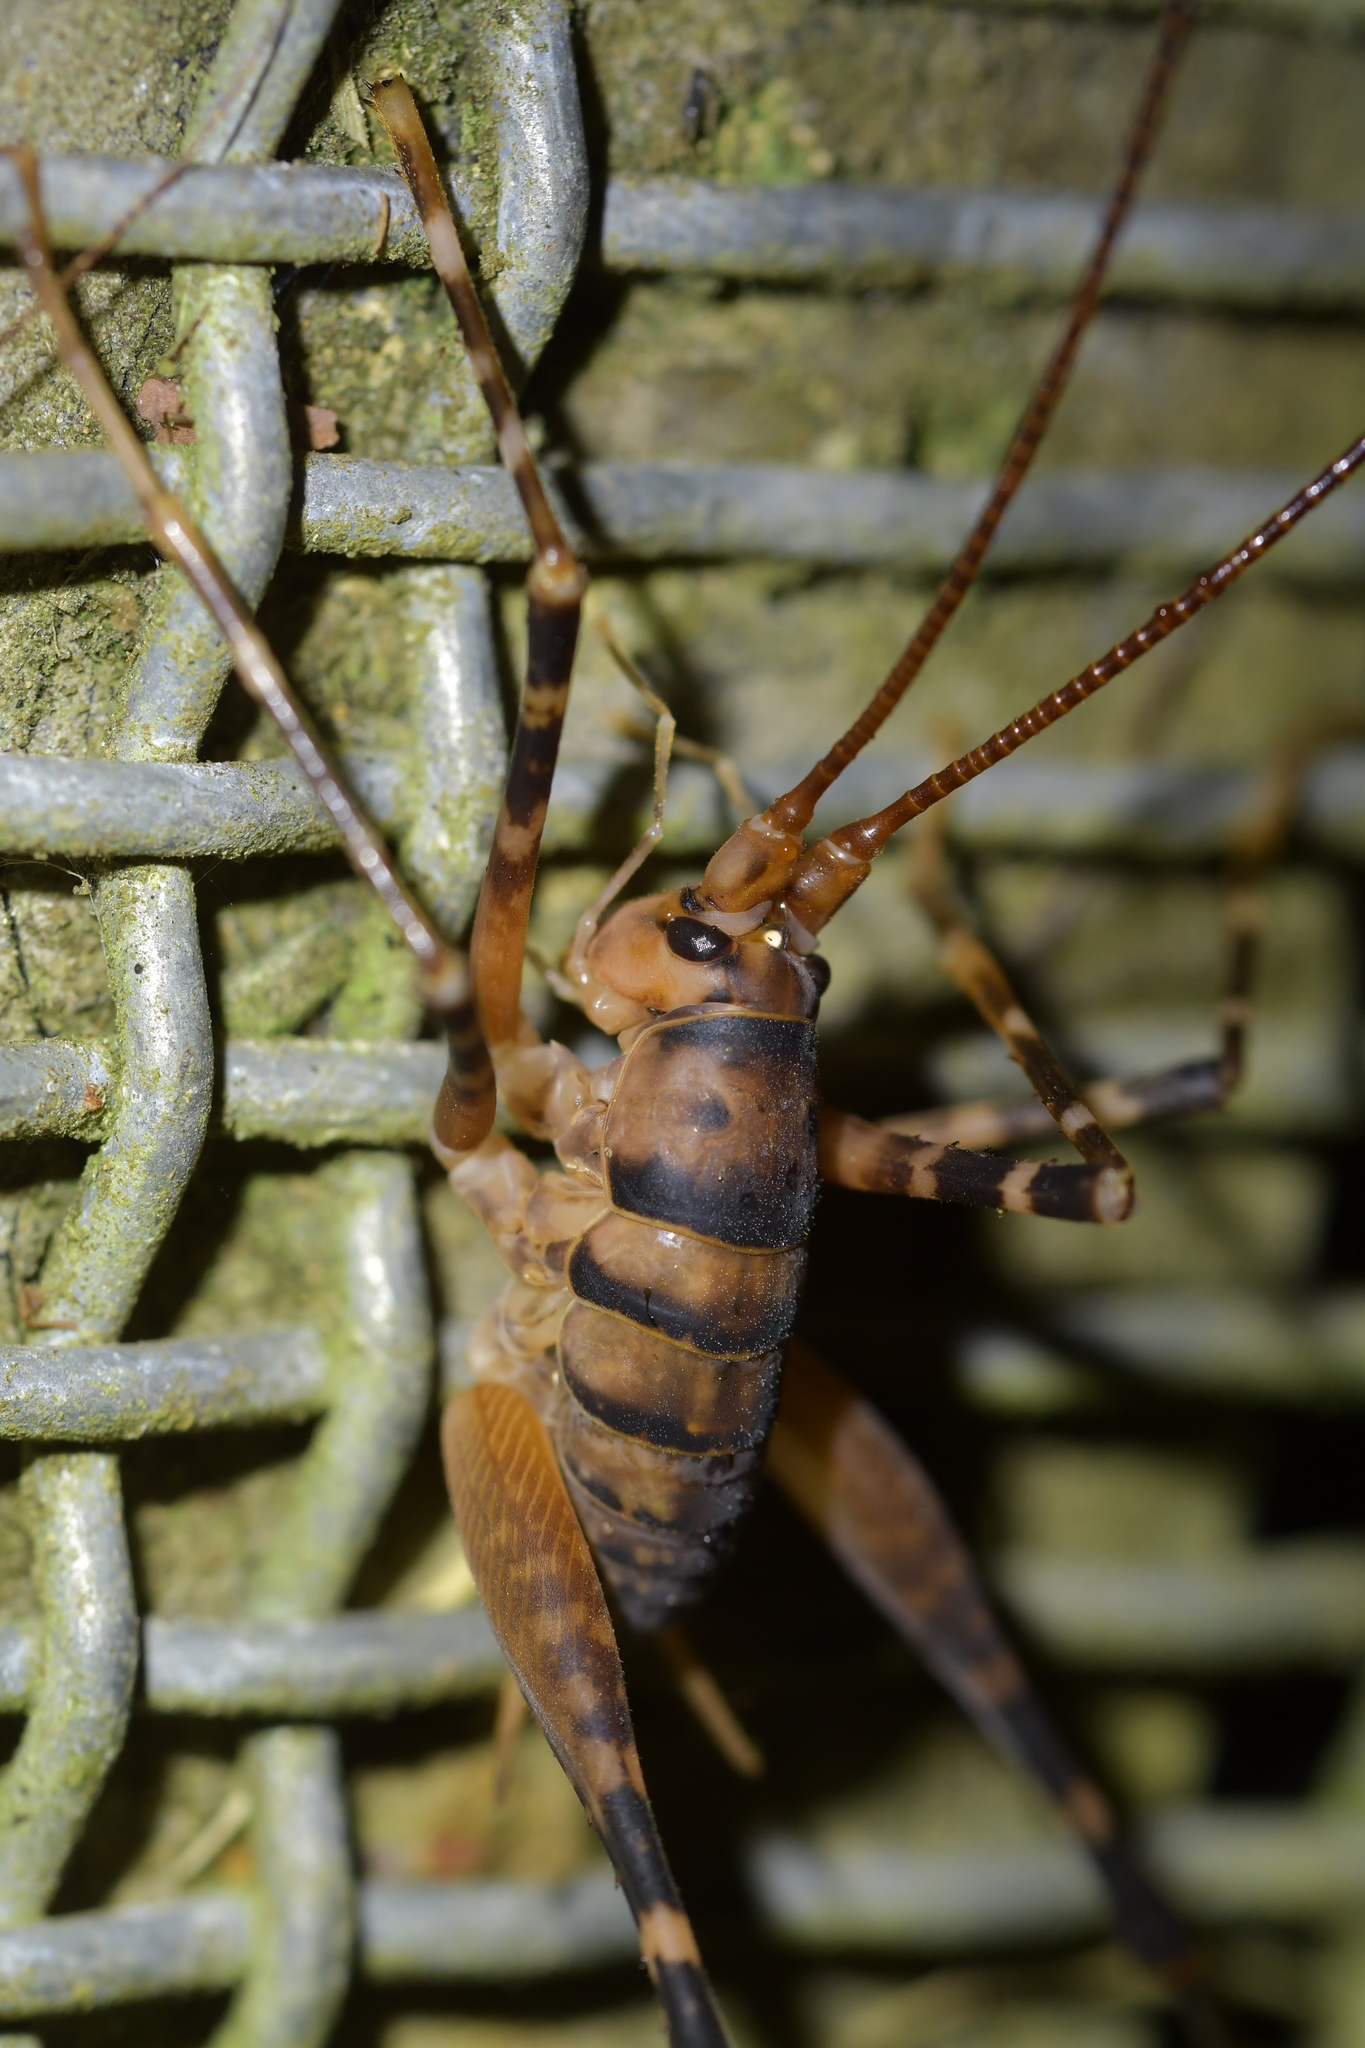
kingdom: Animalia
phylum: Arthropoda
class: Insecta
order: Orthoptera
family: Rhaphidophoridae
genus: Pachyrhamma
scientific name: Pachyrhamma edwardsii
